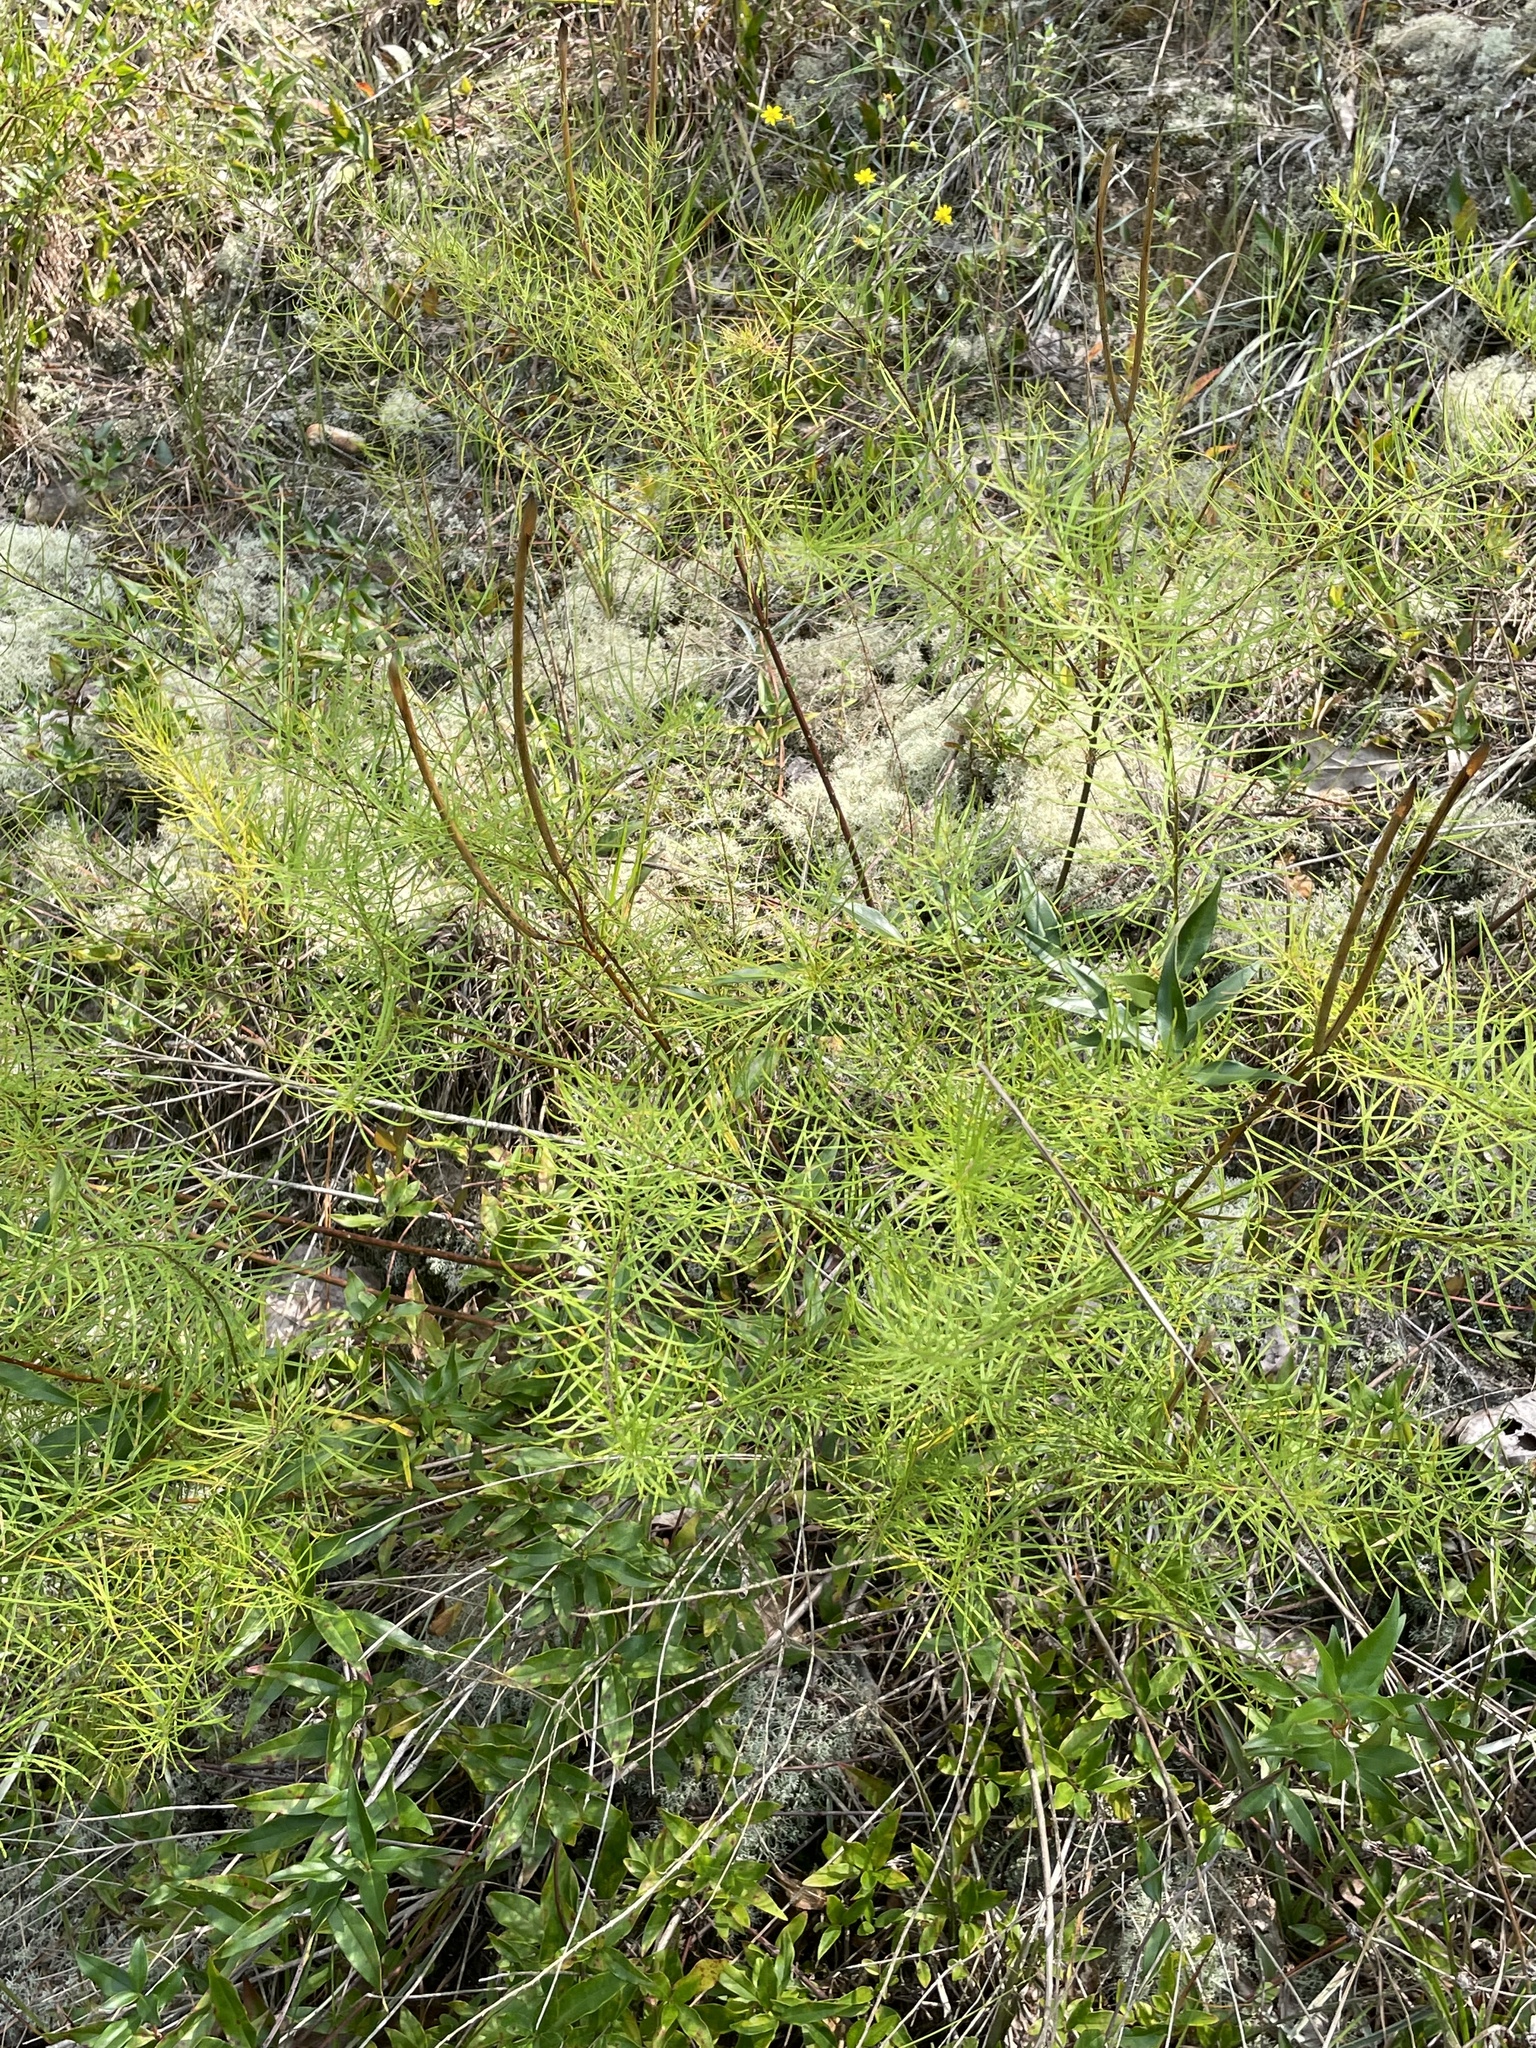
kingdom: Plantae
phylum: Tracheophyta
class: Magnoliopsida
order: Gentianales
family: Apocynaceae
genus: Amsonia
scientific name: Amsonia ciliata
